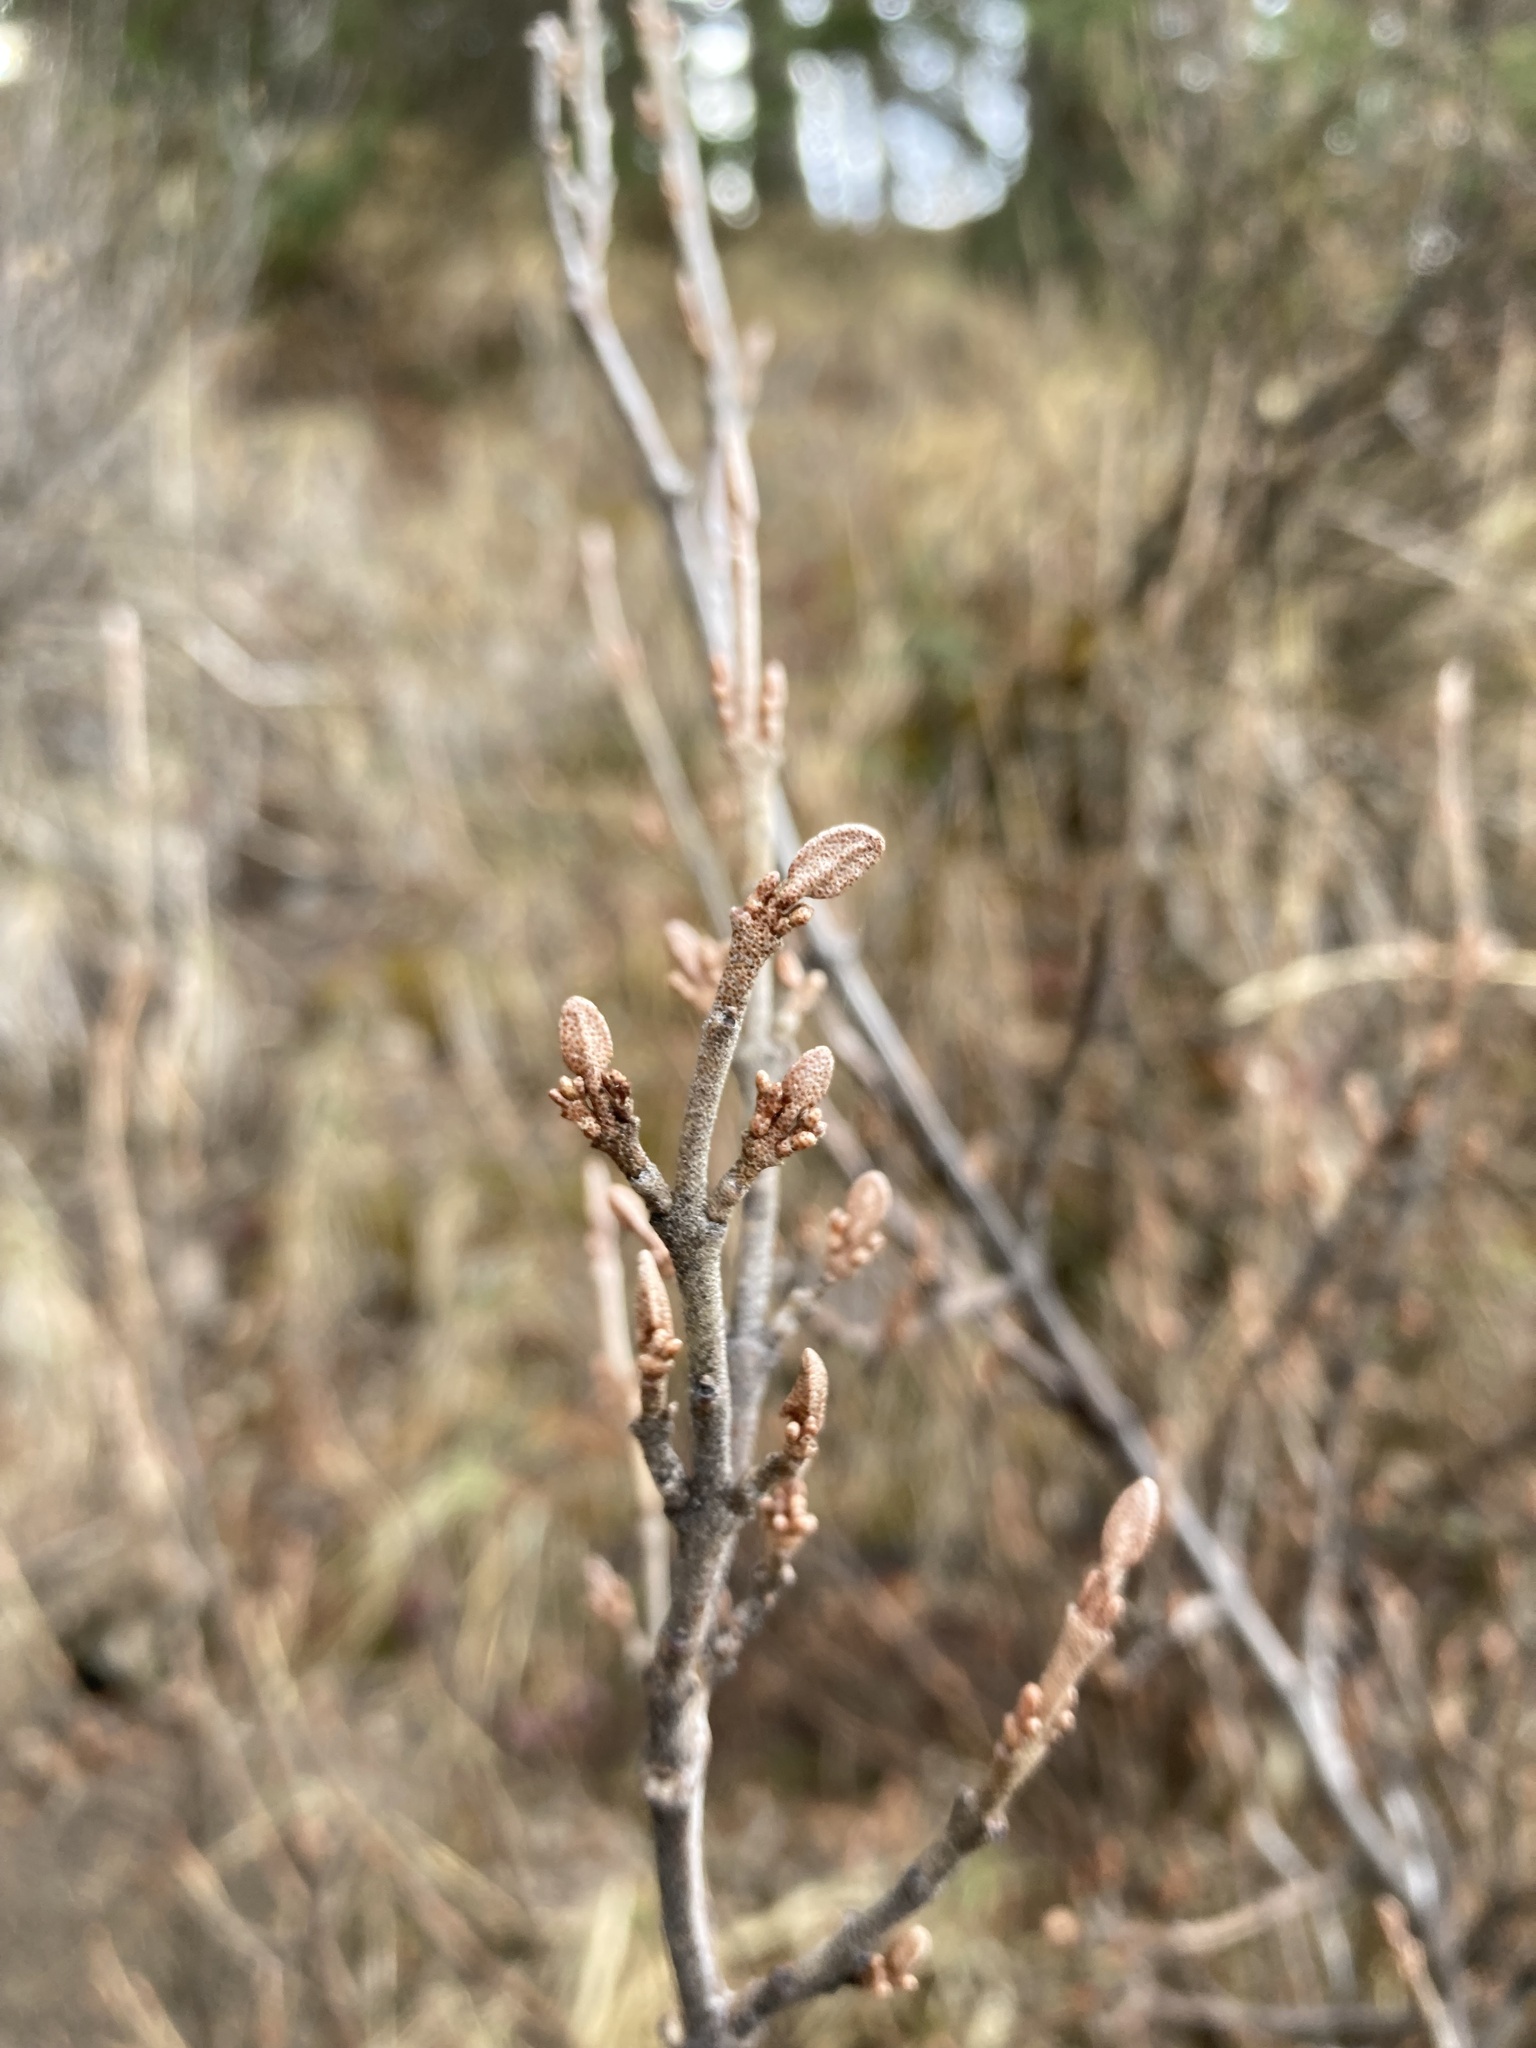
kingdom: Plantae
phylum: Tracheophyta
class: Magnoliopsida
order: Rosales
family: Elaeagnaceae
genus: Shepherdia
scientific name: Shepherdia canadensis
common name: Soapberry
